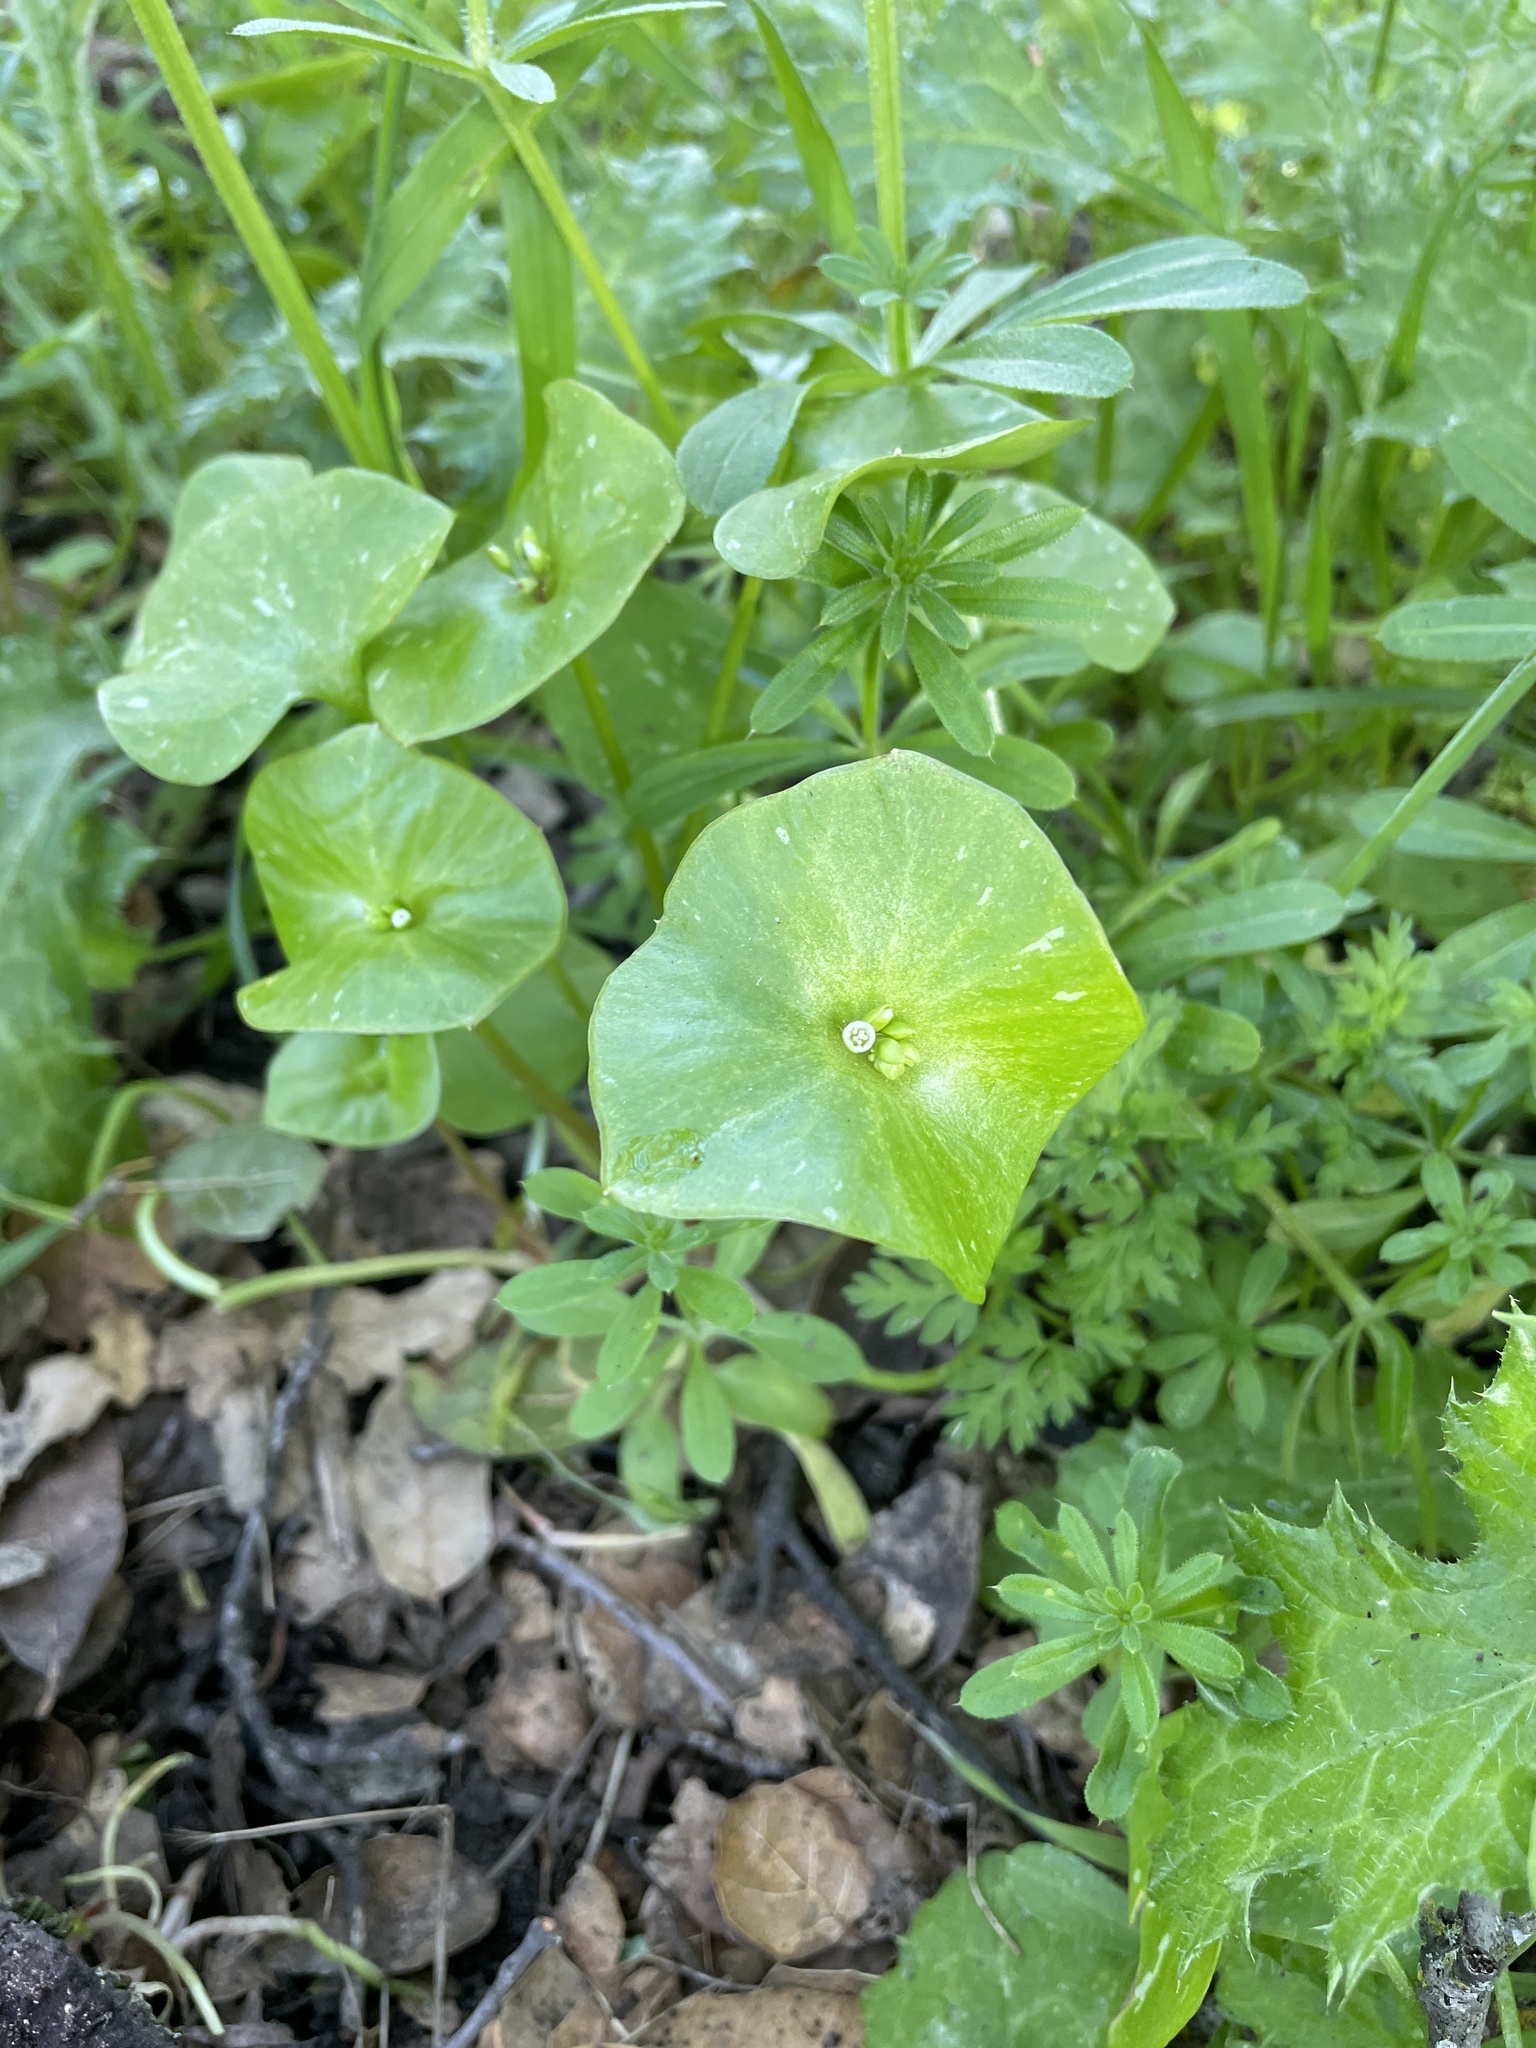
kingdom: Plantae
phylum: Tracheophyta
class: Magnoliopsida
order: Caryophyllales
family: Montiaceae
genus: Claytonia
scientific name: Claytonia perfoliata
